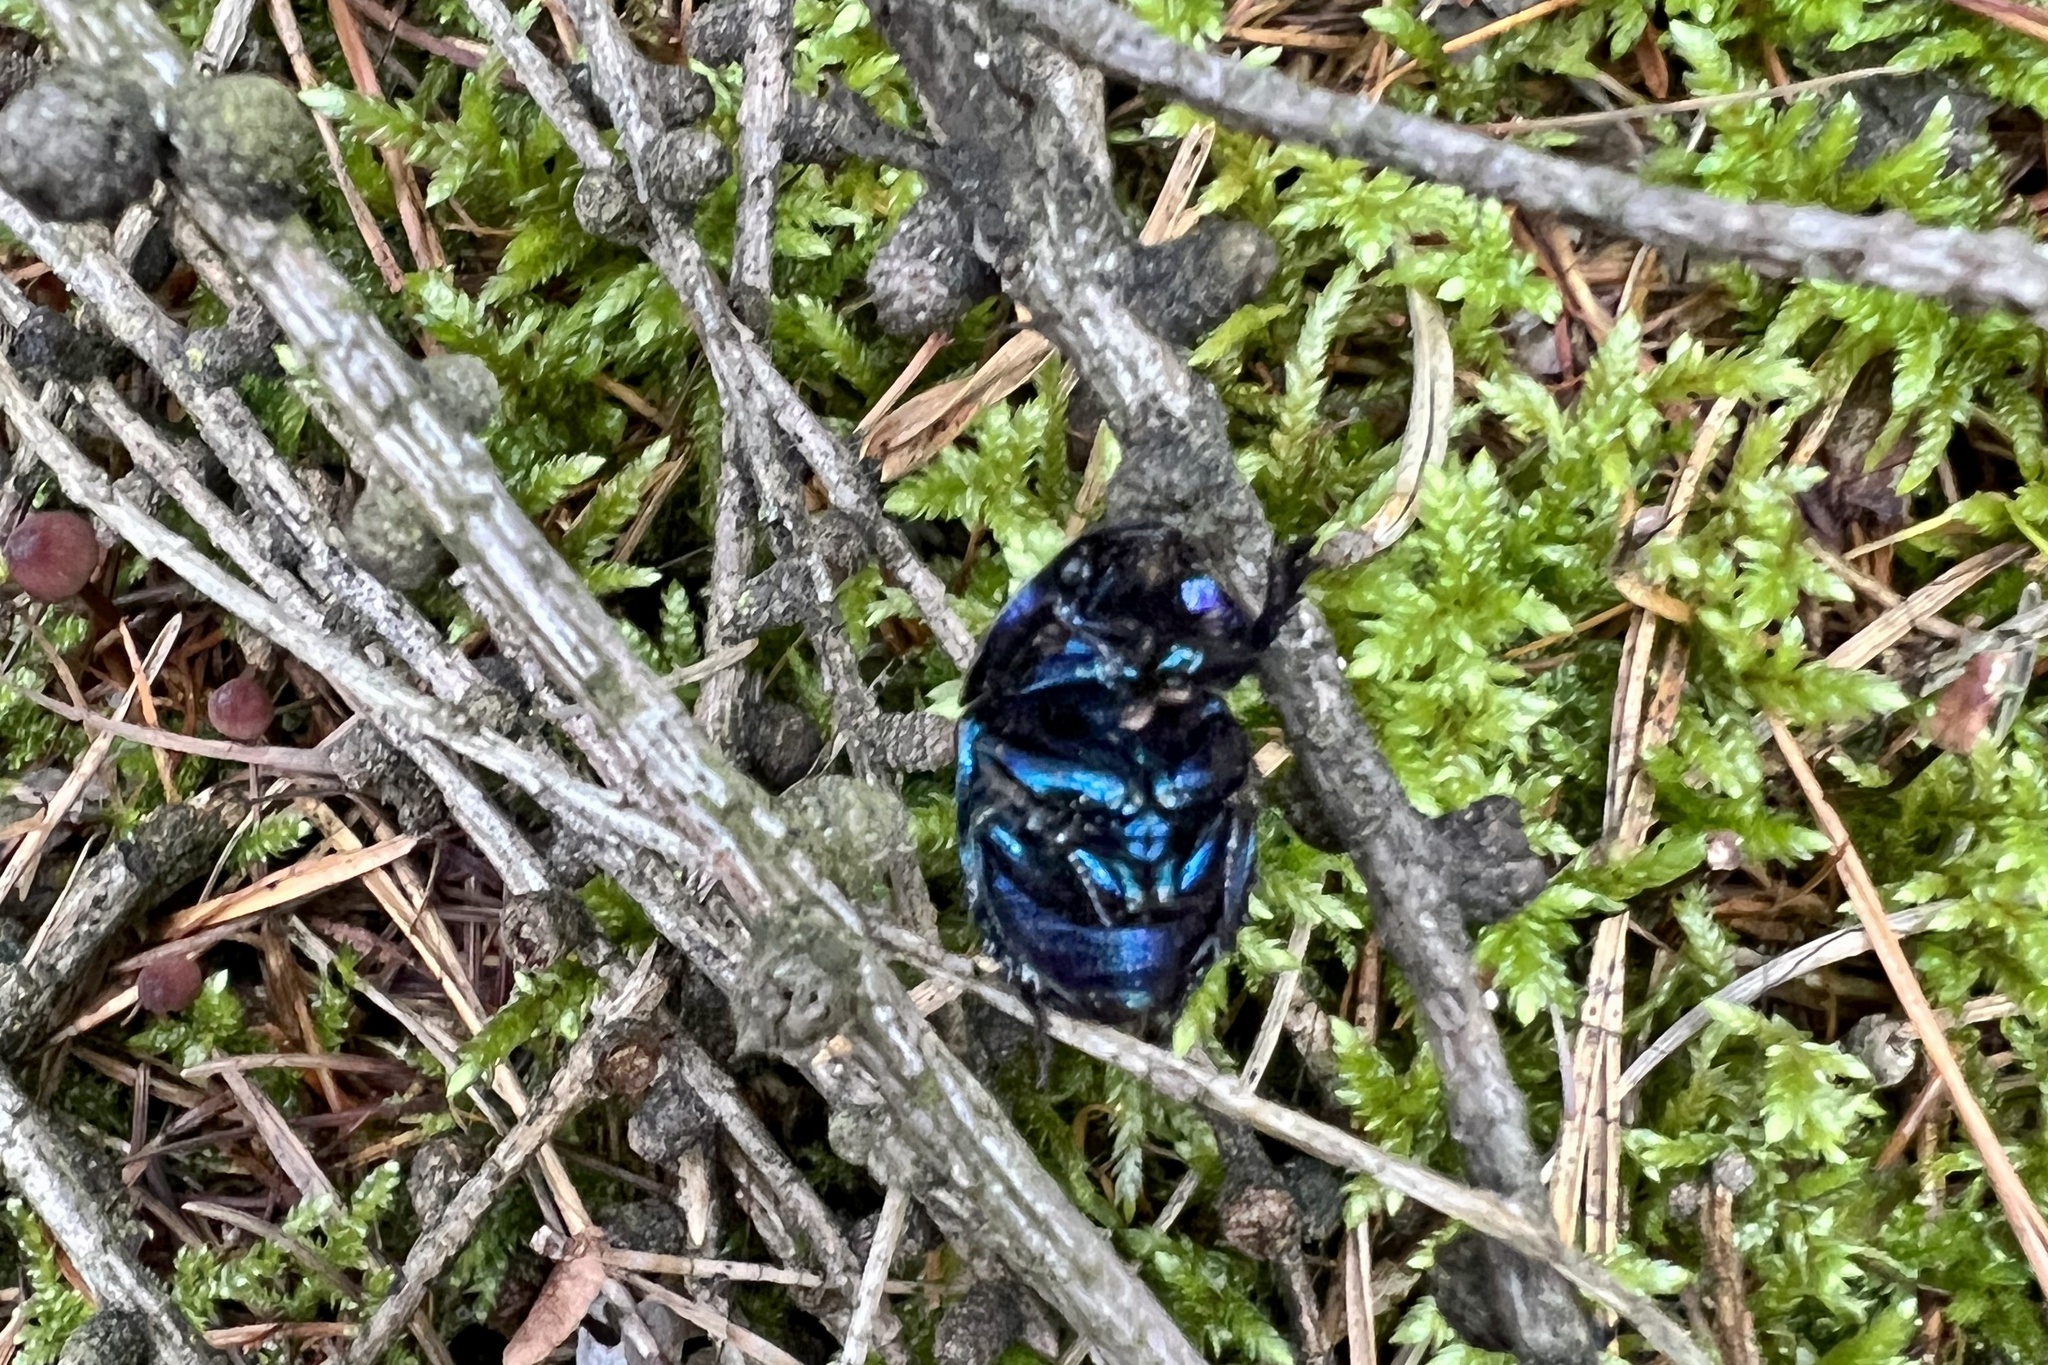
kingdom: Animalia
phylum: Arthropoda
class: Insecta
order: Coleoptera
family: Geotrupidae
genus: Anoplotrupes
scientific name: Anoplotrupes stercorosus
